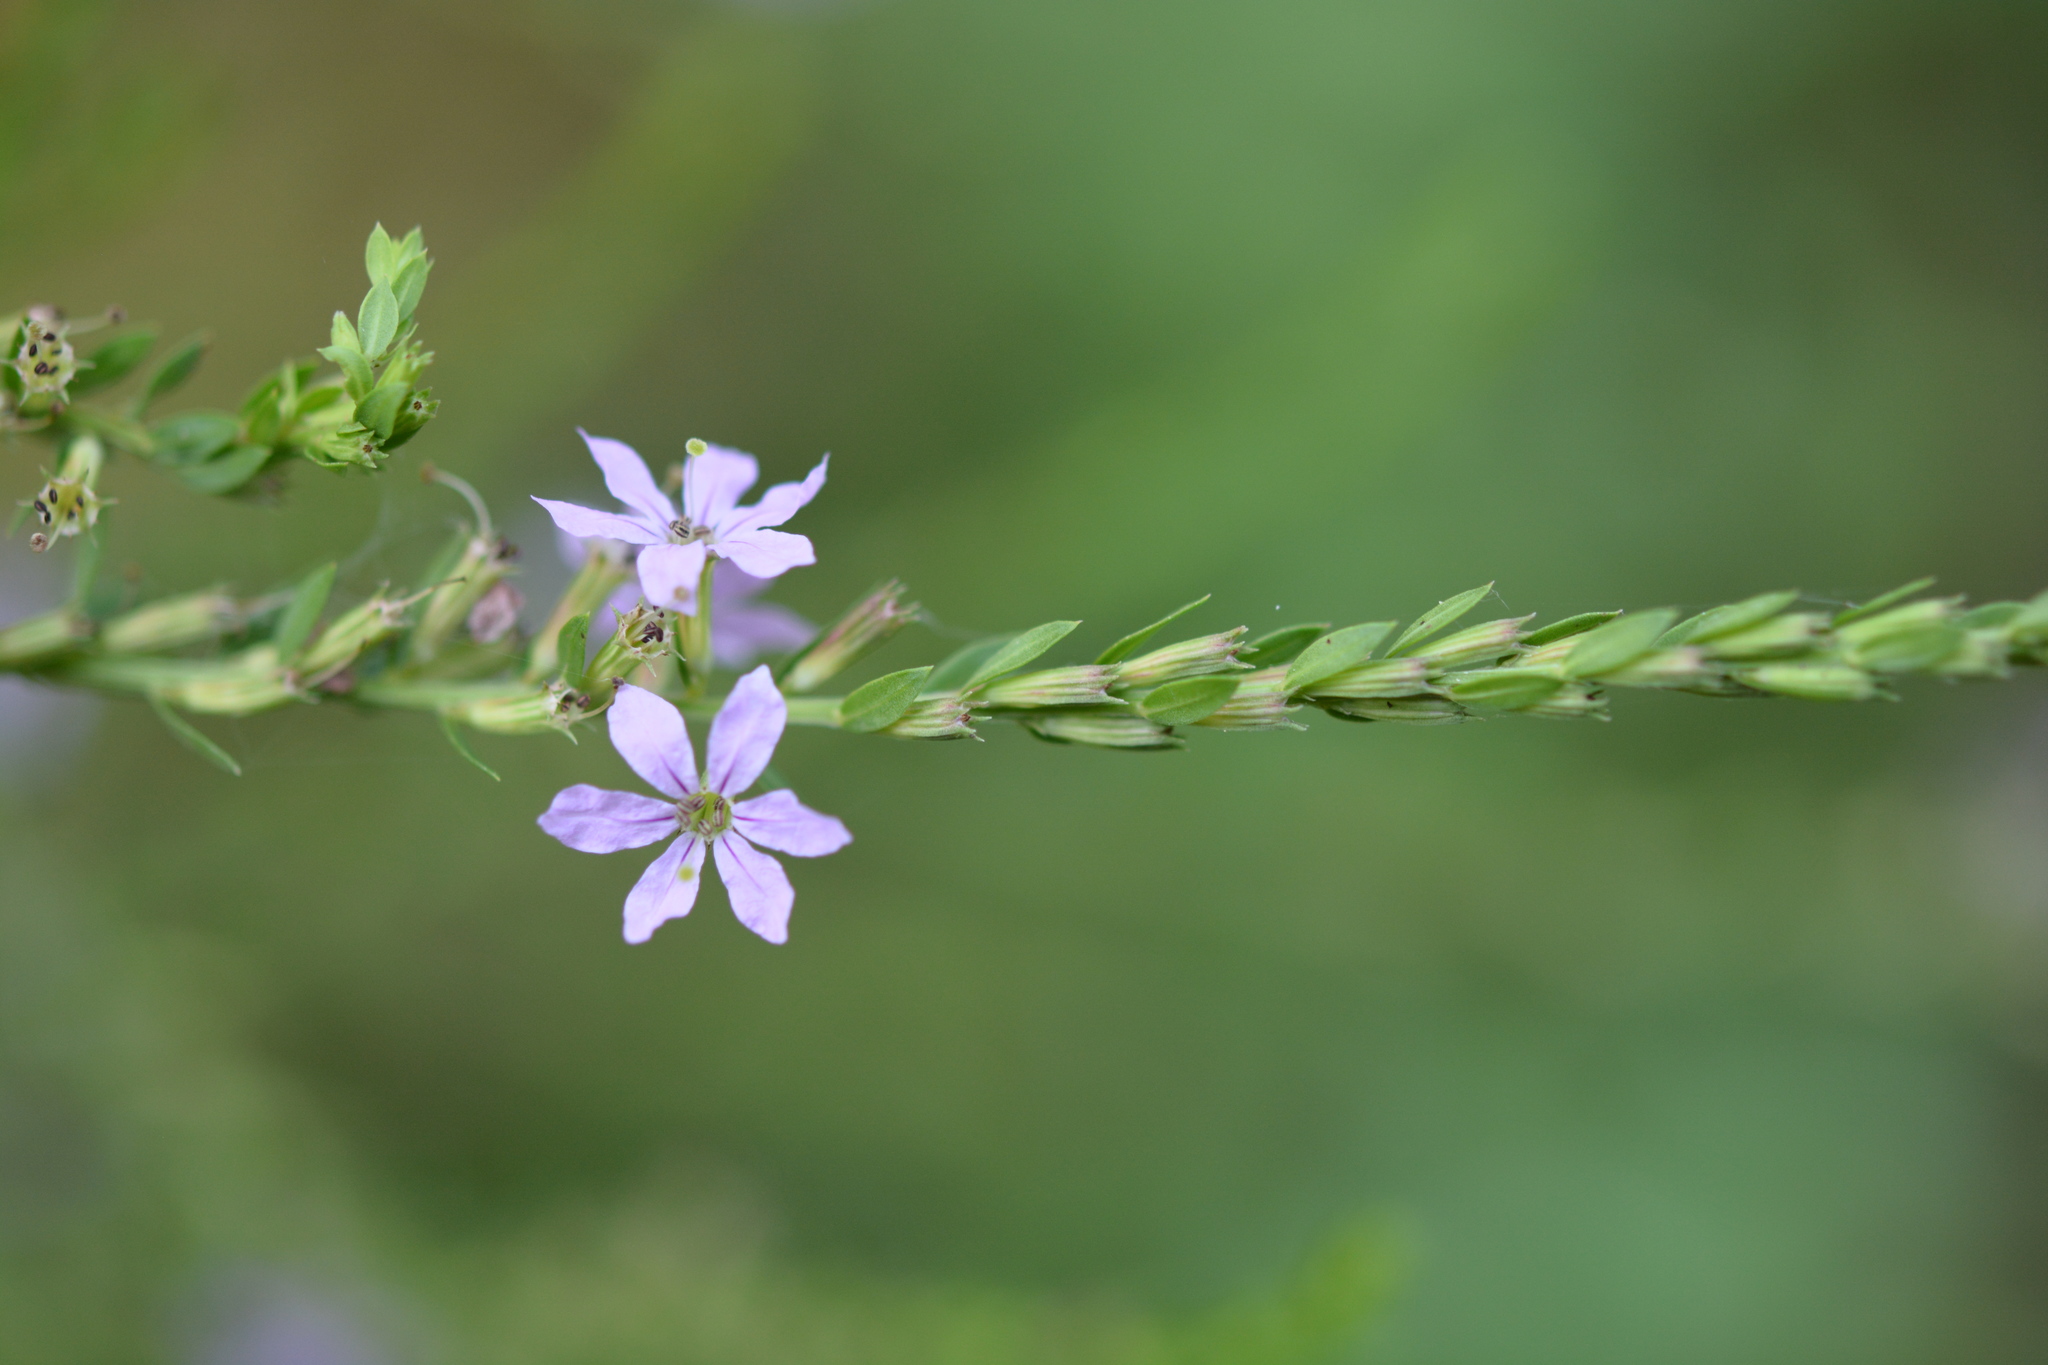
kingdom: Plantae
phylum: Tracheophyta
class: Magnoliopsida
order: Myrtales
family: Lythraceae
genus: Lythrum
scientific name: Lythrum alatum
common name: Winged loosestrife
